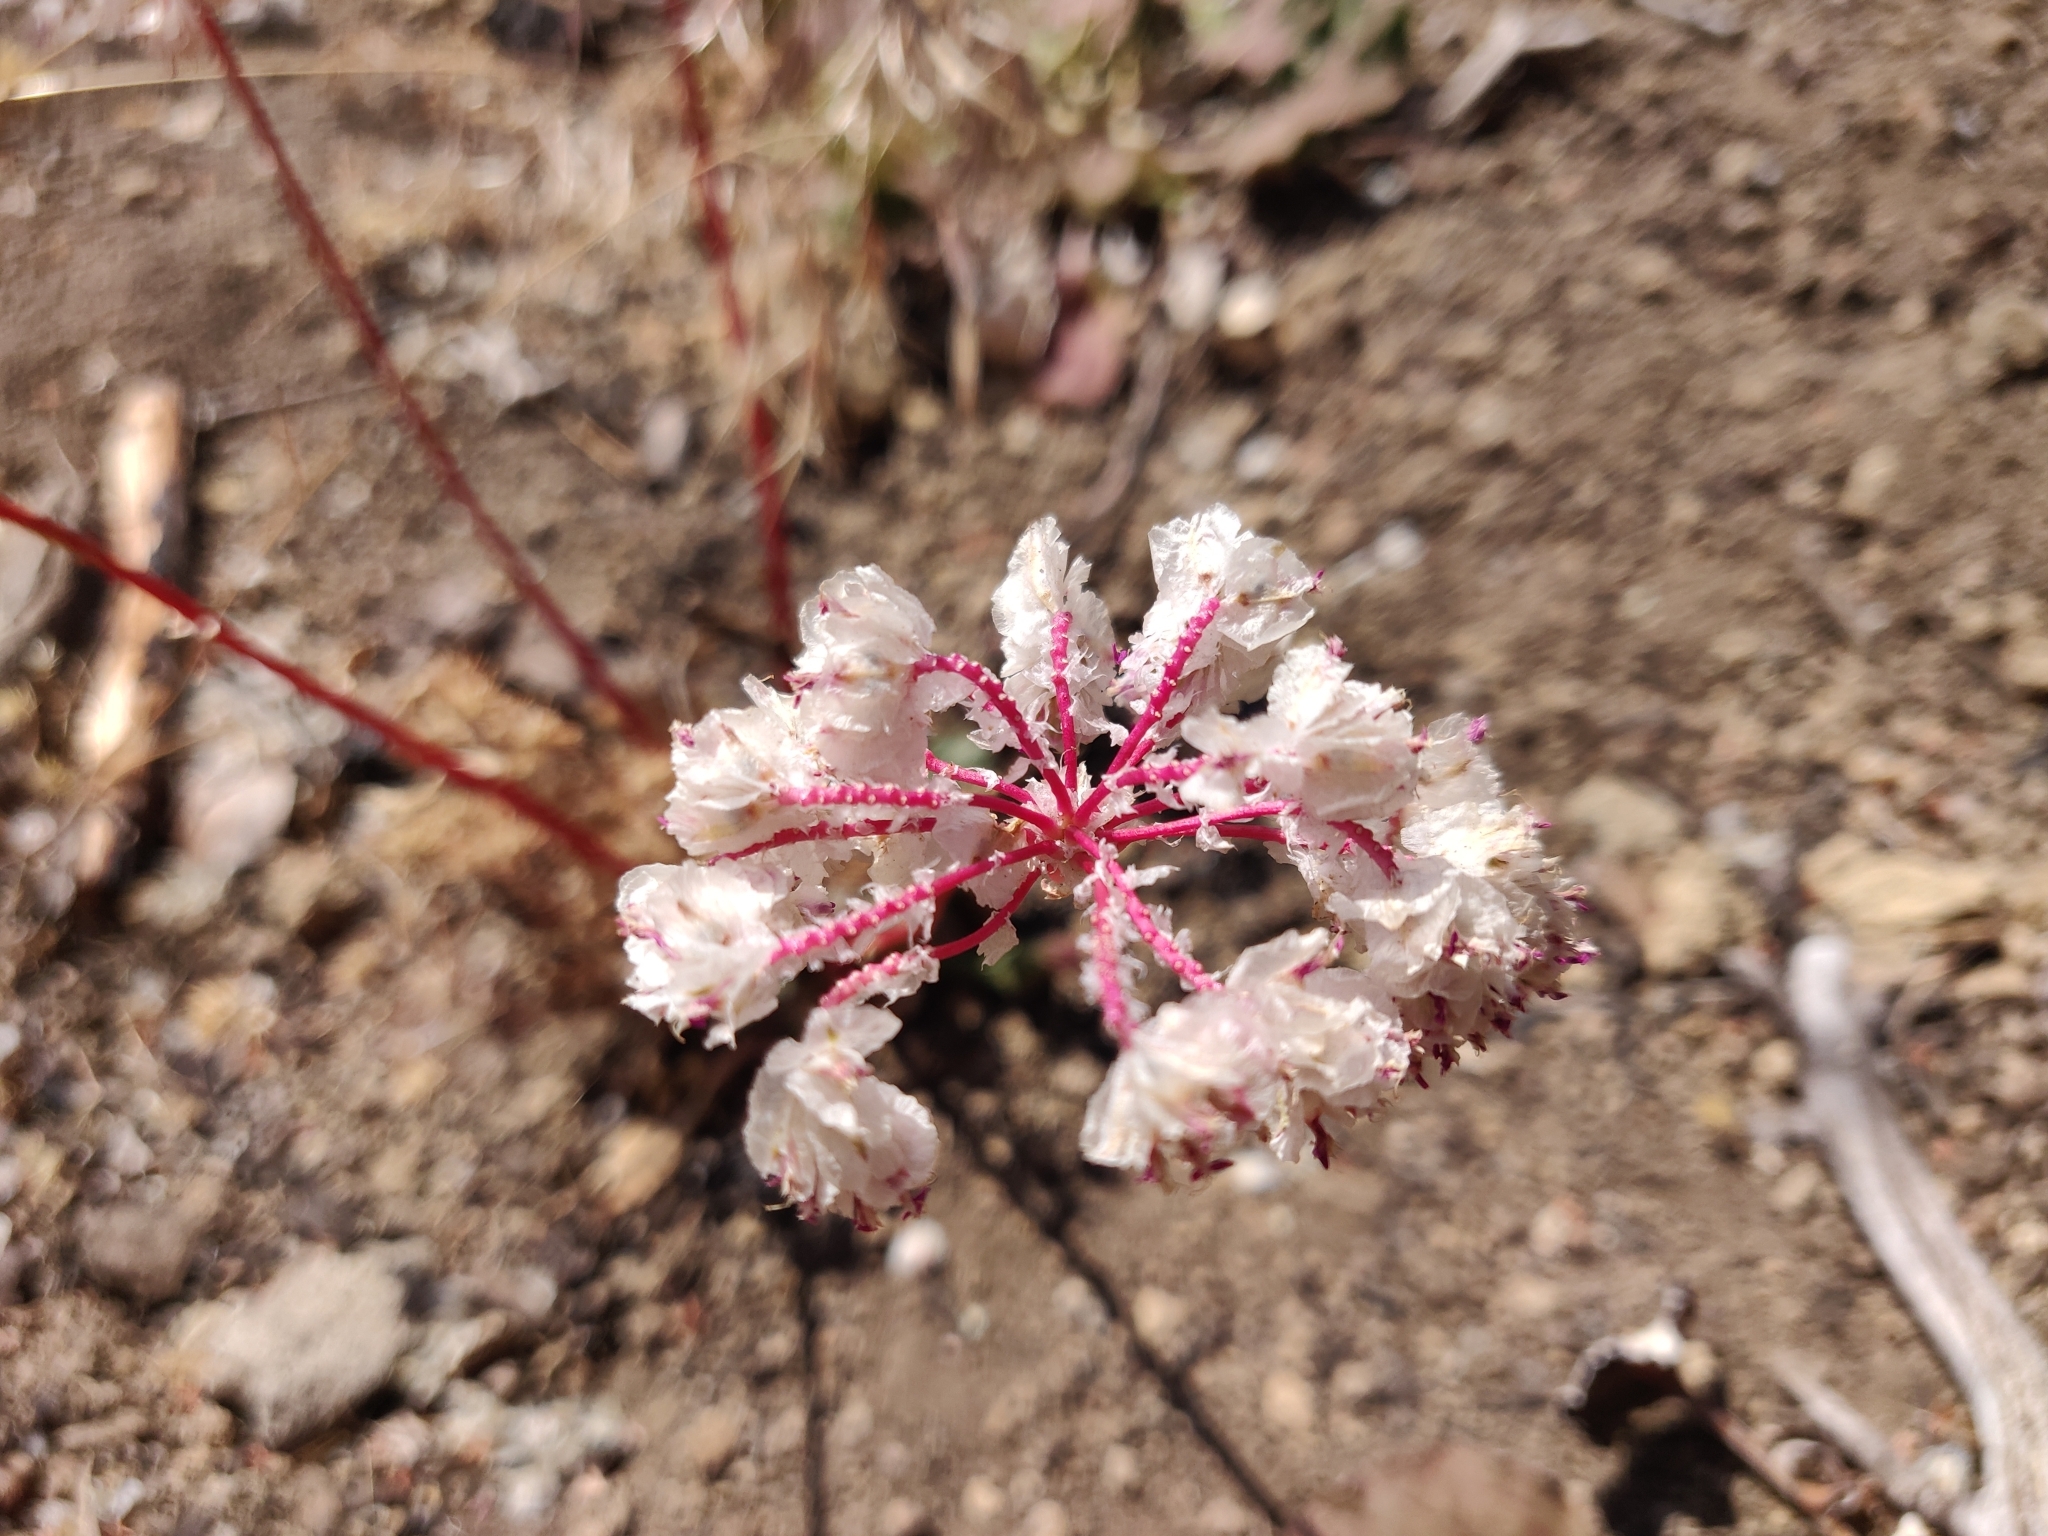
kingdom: Plantae
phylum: Tracheophyta
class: Magnoliopsida
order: Caryophyllales
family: Montiaceae
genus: Calyptridium
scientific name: Calyptridium monospermum
